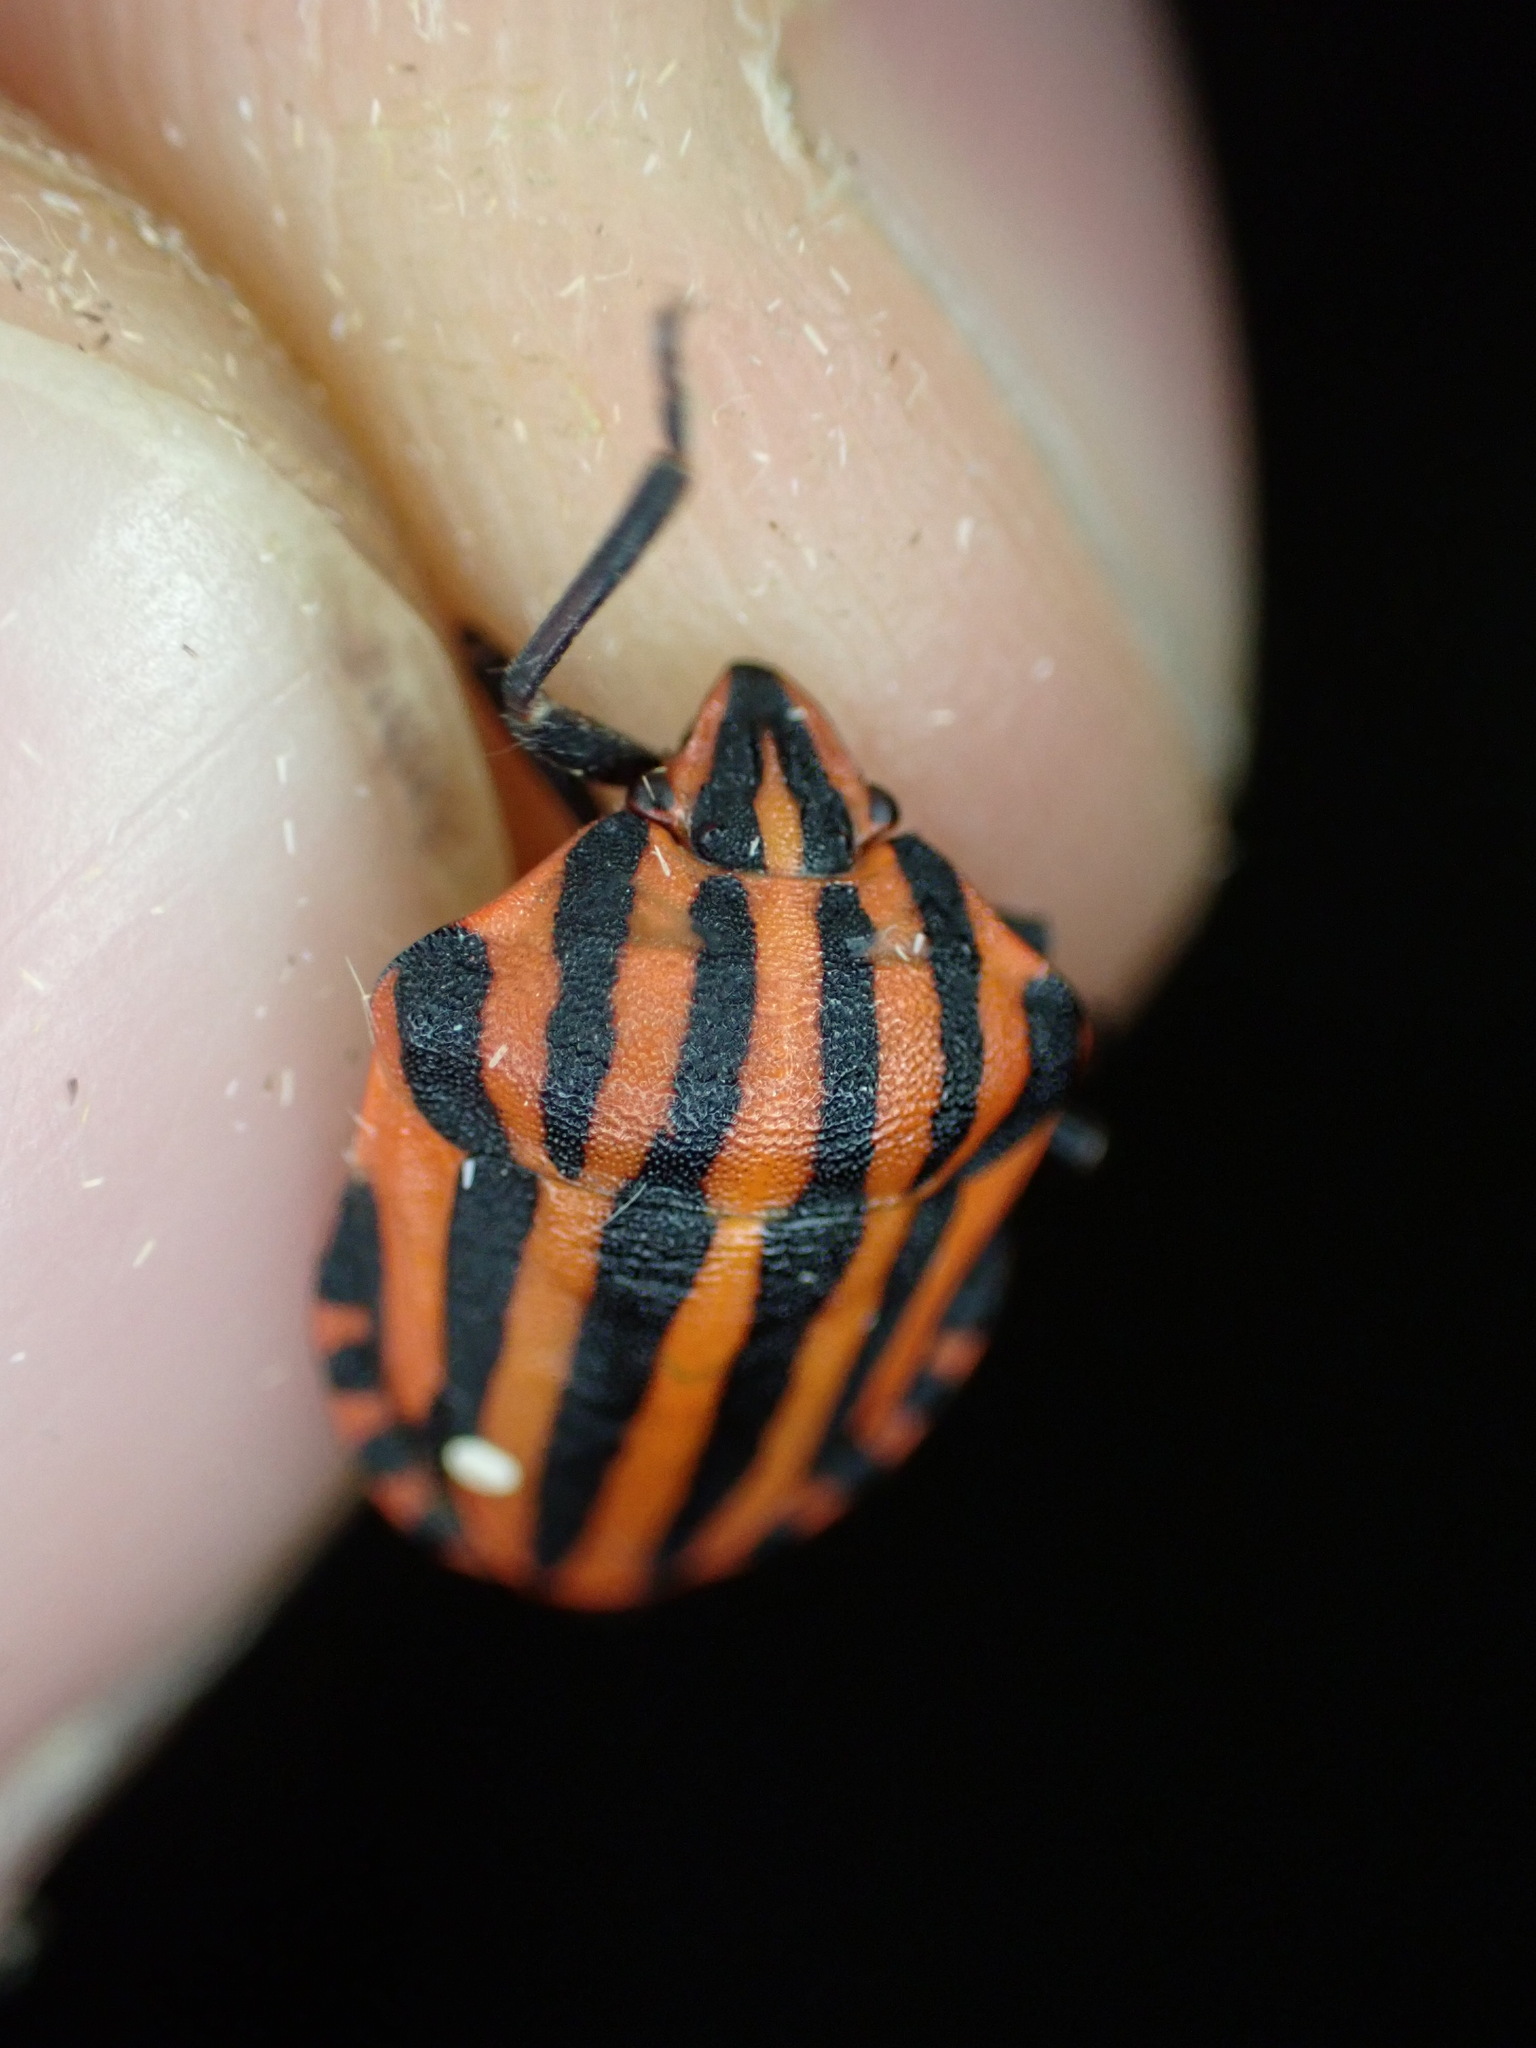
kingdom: Animalia
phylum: Arthropoda
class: Insecta
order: Hemiptera
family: Pentatomidae
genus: Graphosoma
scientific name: Graphosoma italicum
